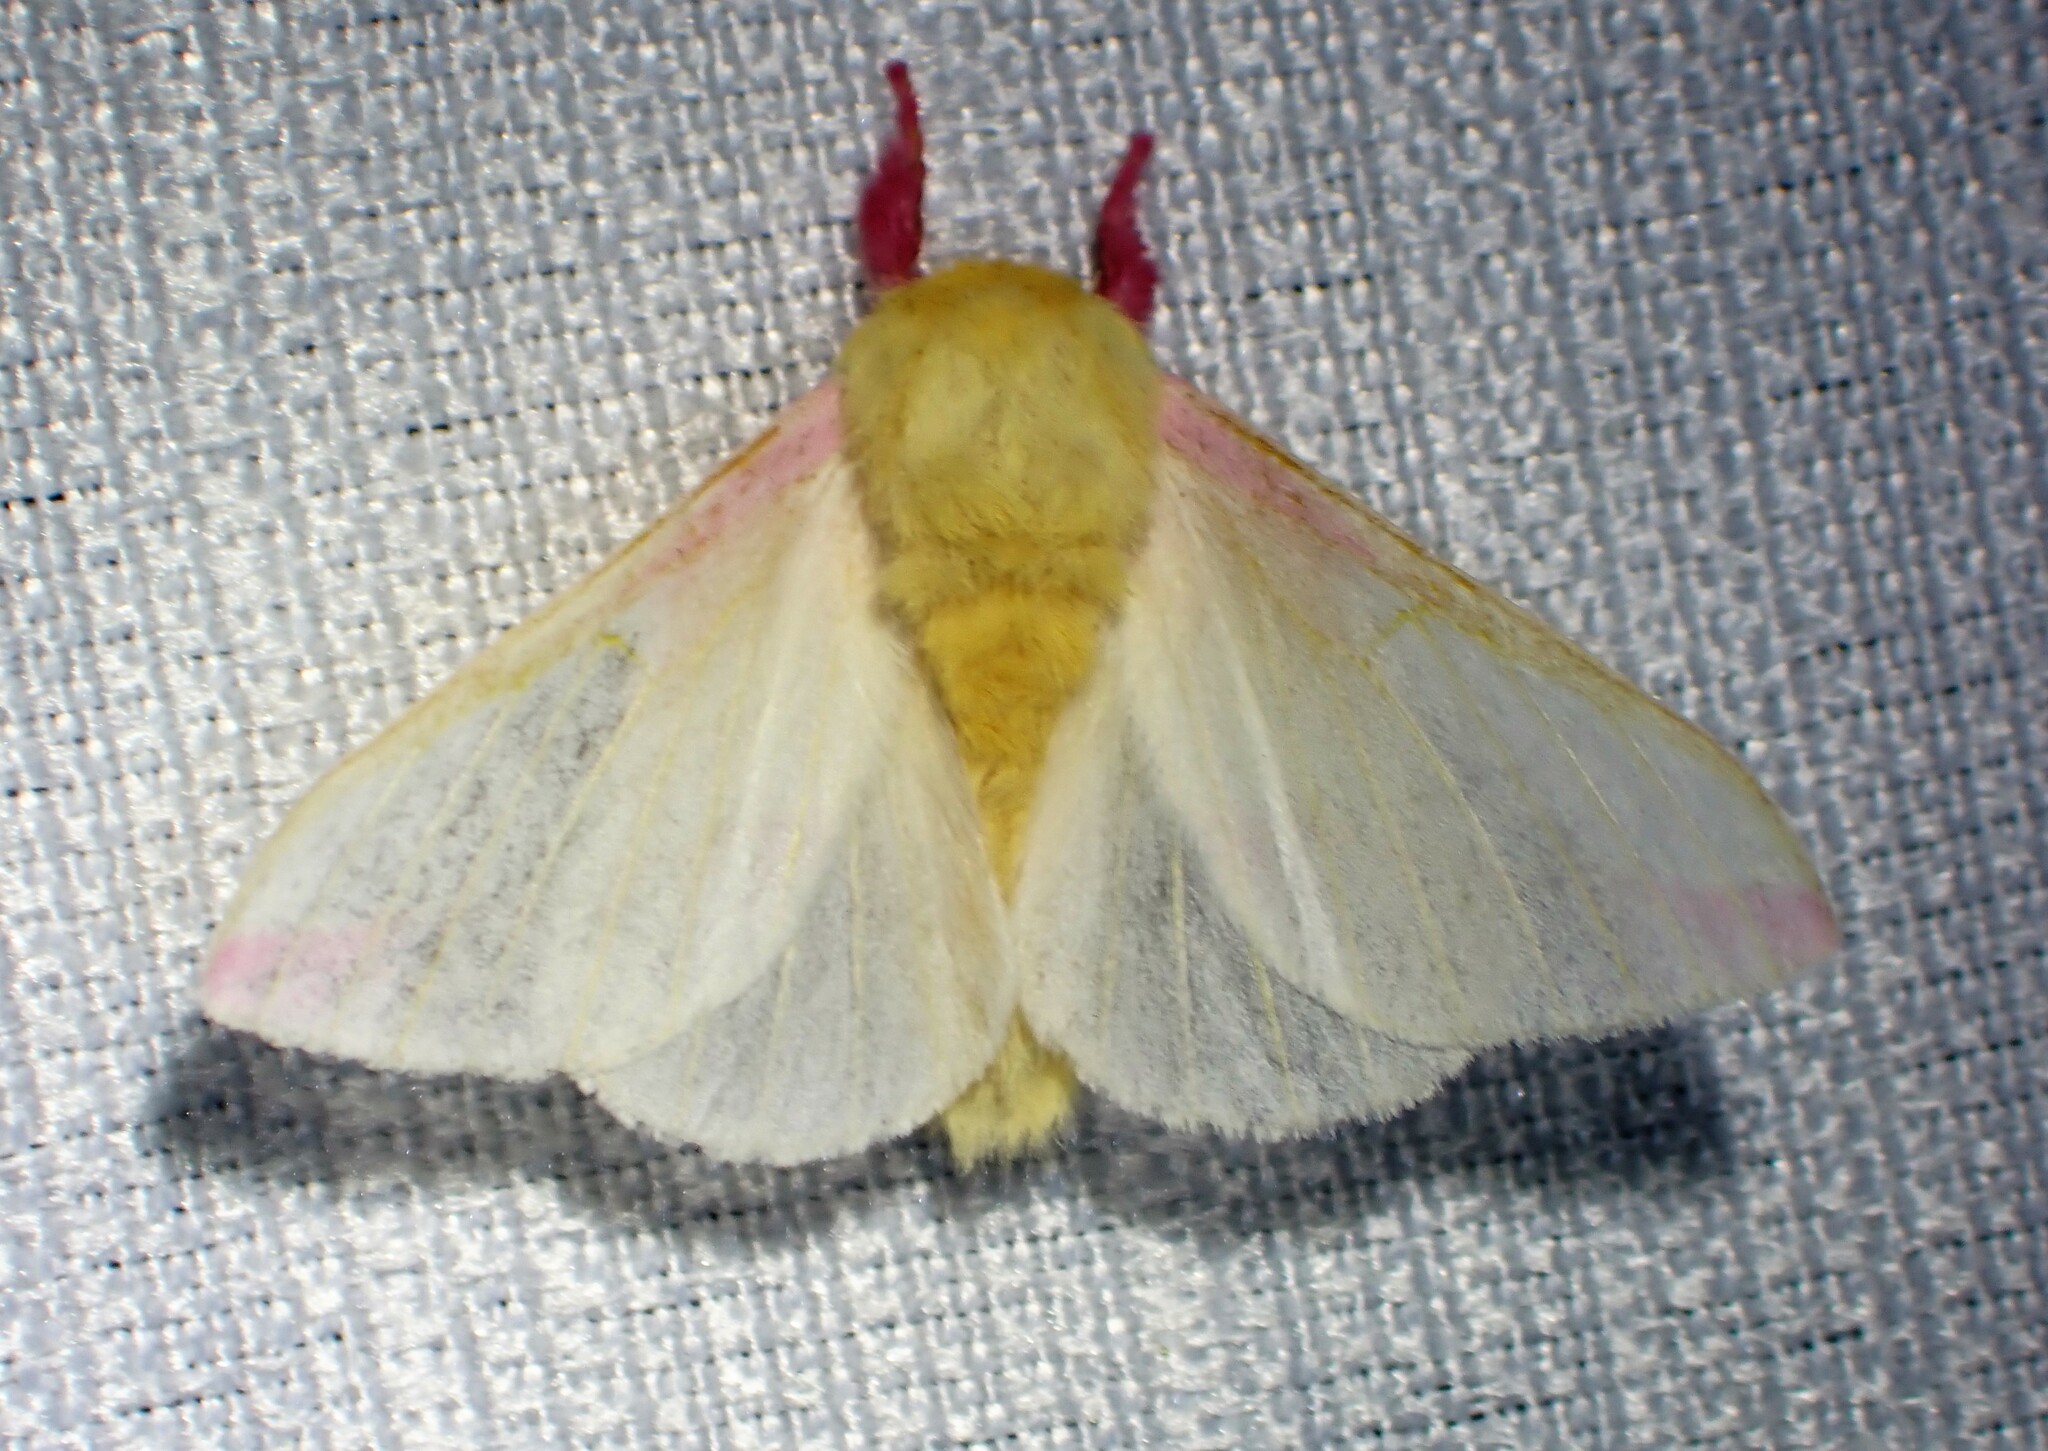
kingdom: Animalia
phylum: Arthropoda
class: Insecta
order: Lepidoptera
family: Saturniidae
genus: Dryocampa
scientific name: Dryocampa rubicunda
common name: Rosy maple moth
